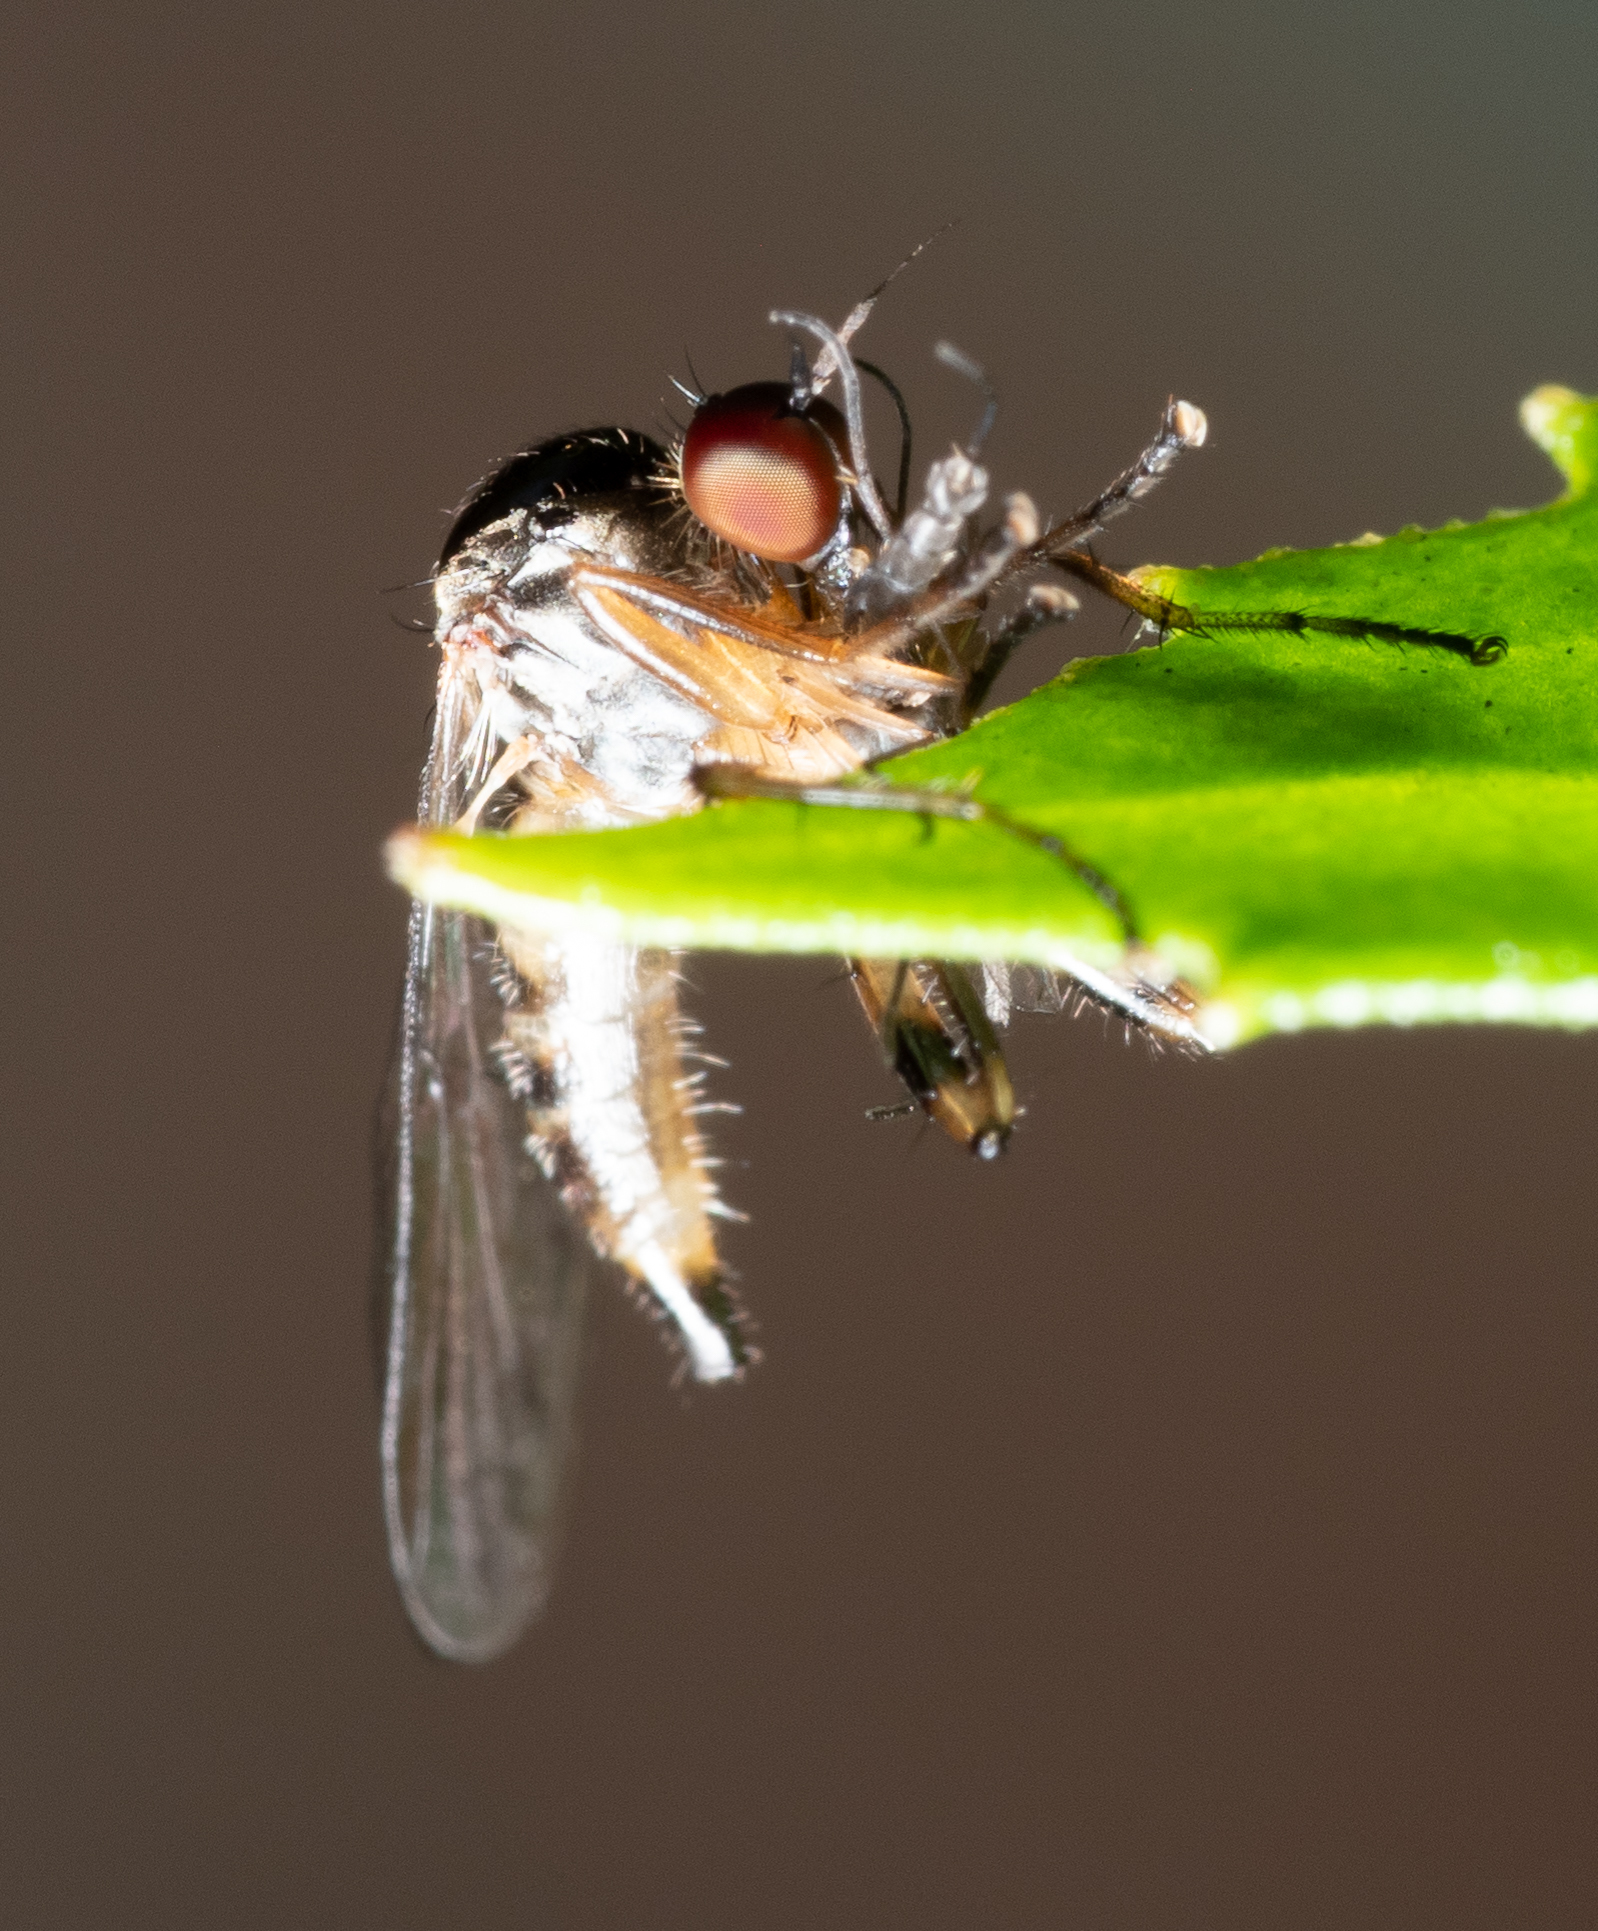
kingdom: Animalia
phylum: Arthropoda
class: Insecta
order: Diptera
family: Hybotidae
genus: Hoplopeza
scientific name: Hoplopeza pulcherrima
